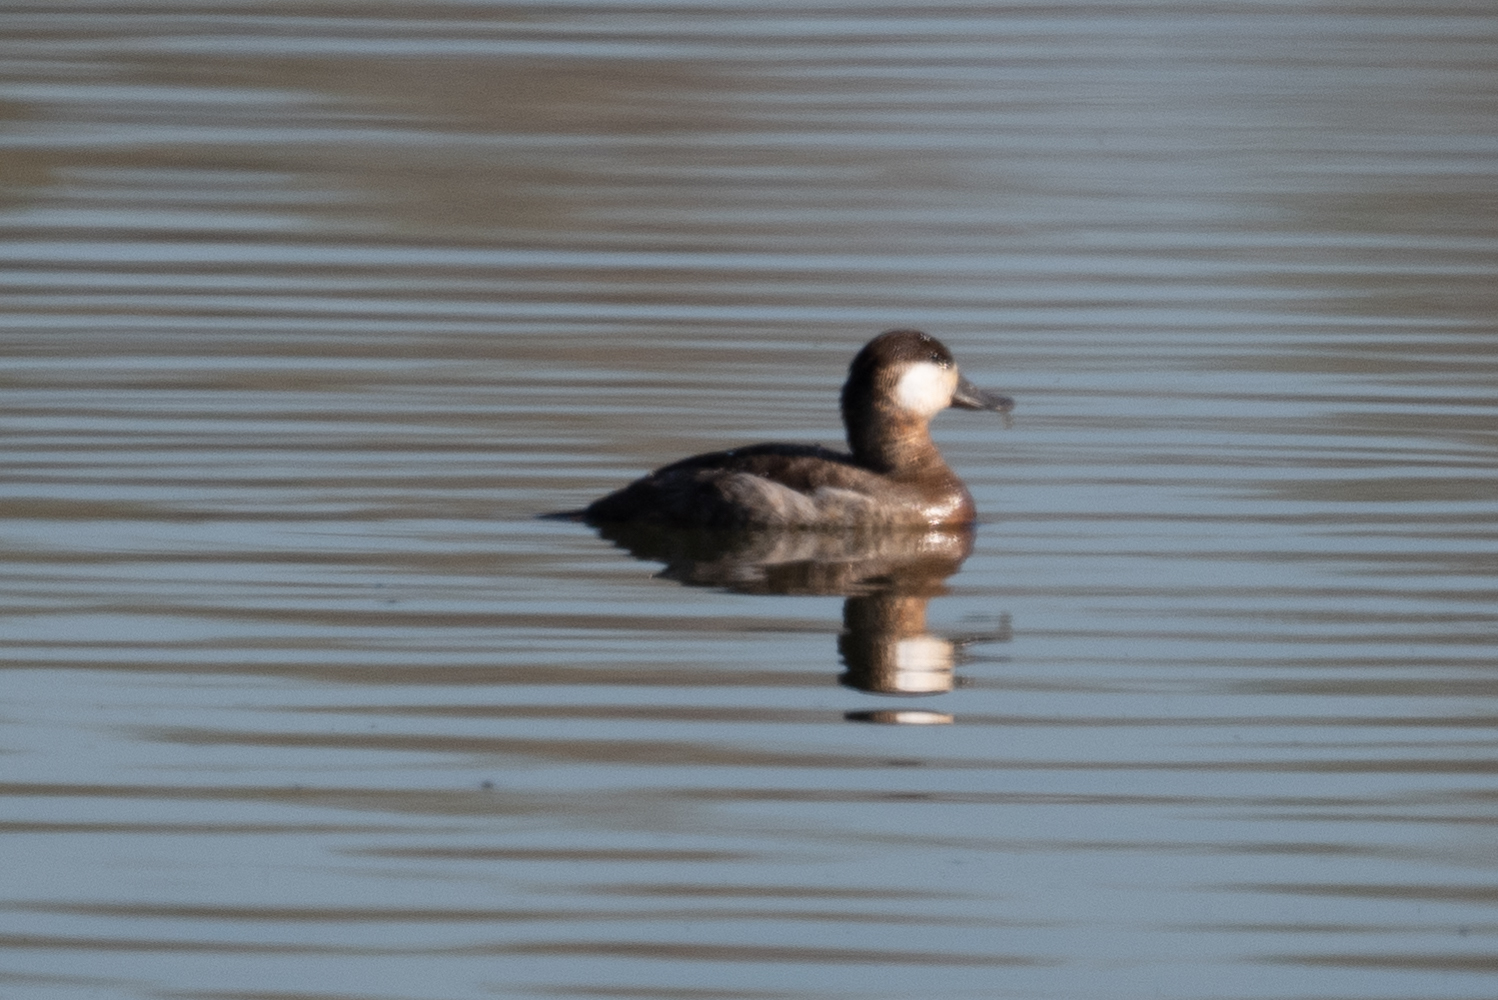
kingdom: Animalia
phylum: Chordata
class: Aves
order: Anseriformes
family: Anatidae
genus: Oxyura
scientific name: Oxyura jamaicensis
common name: Ruddy duck
